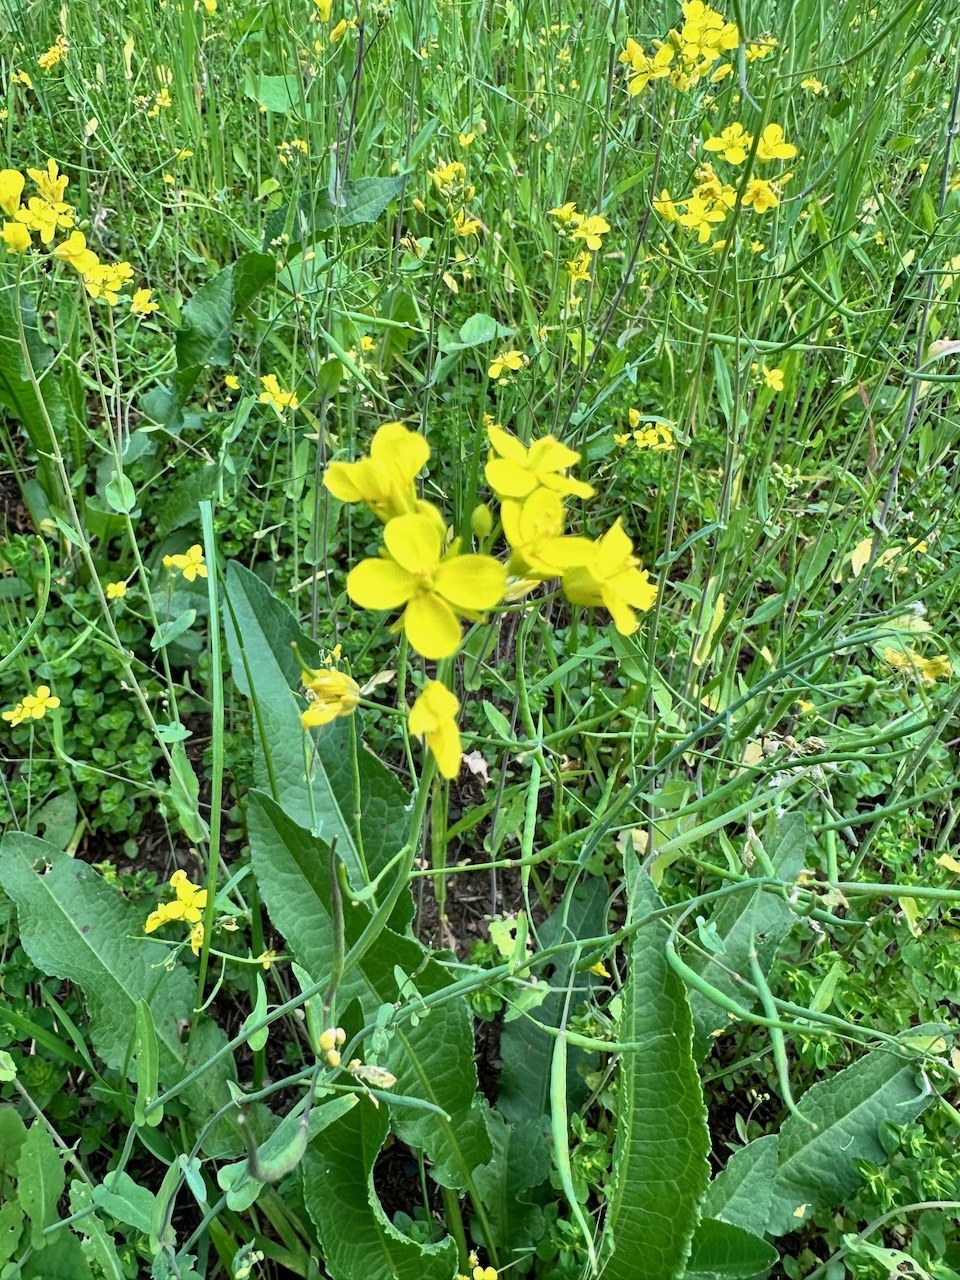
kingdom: Plantae
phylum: Tracheophyta
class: Magnoliopsida
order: Brassicales
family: Brassicaceae
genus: Brassica
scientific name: Brassica rapa
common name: Field mustard
